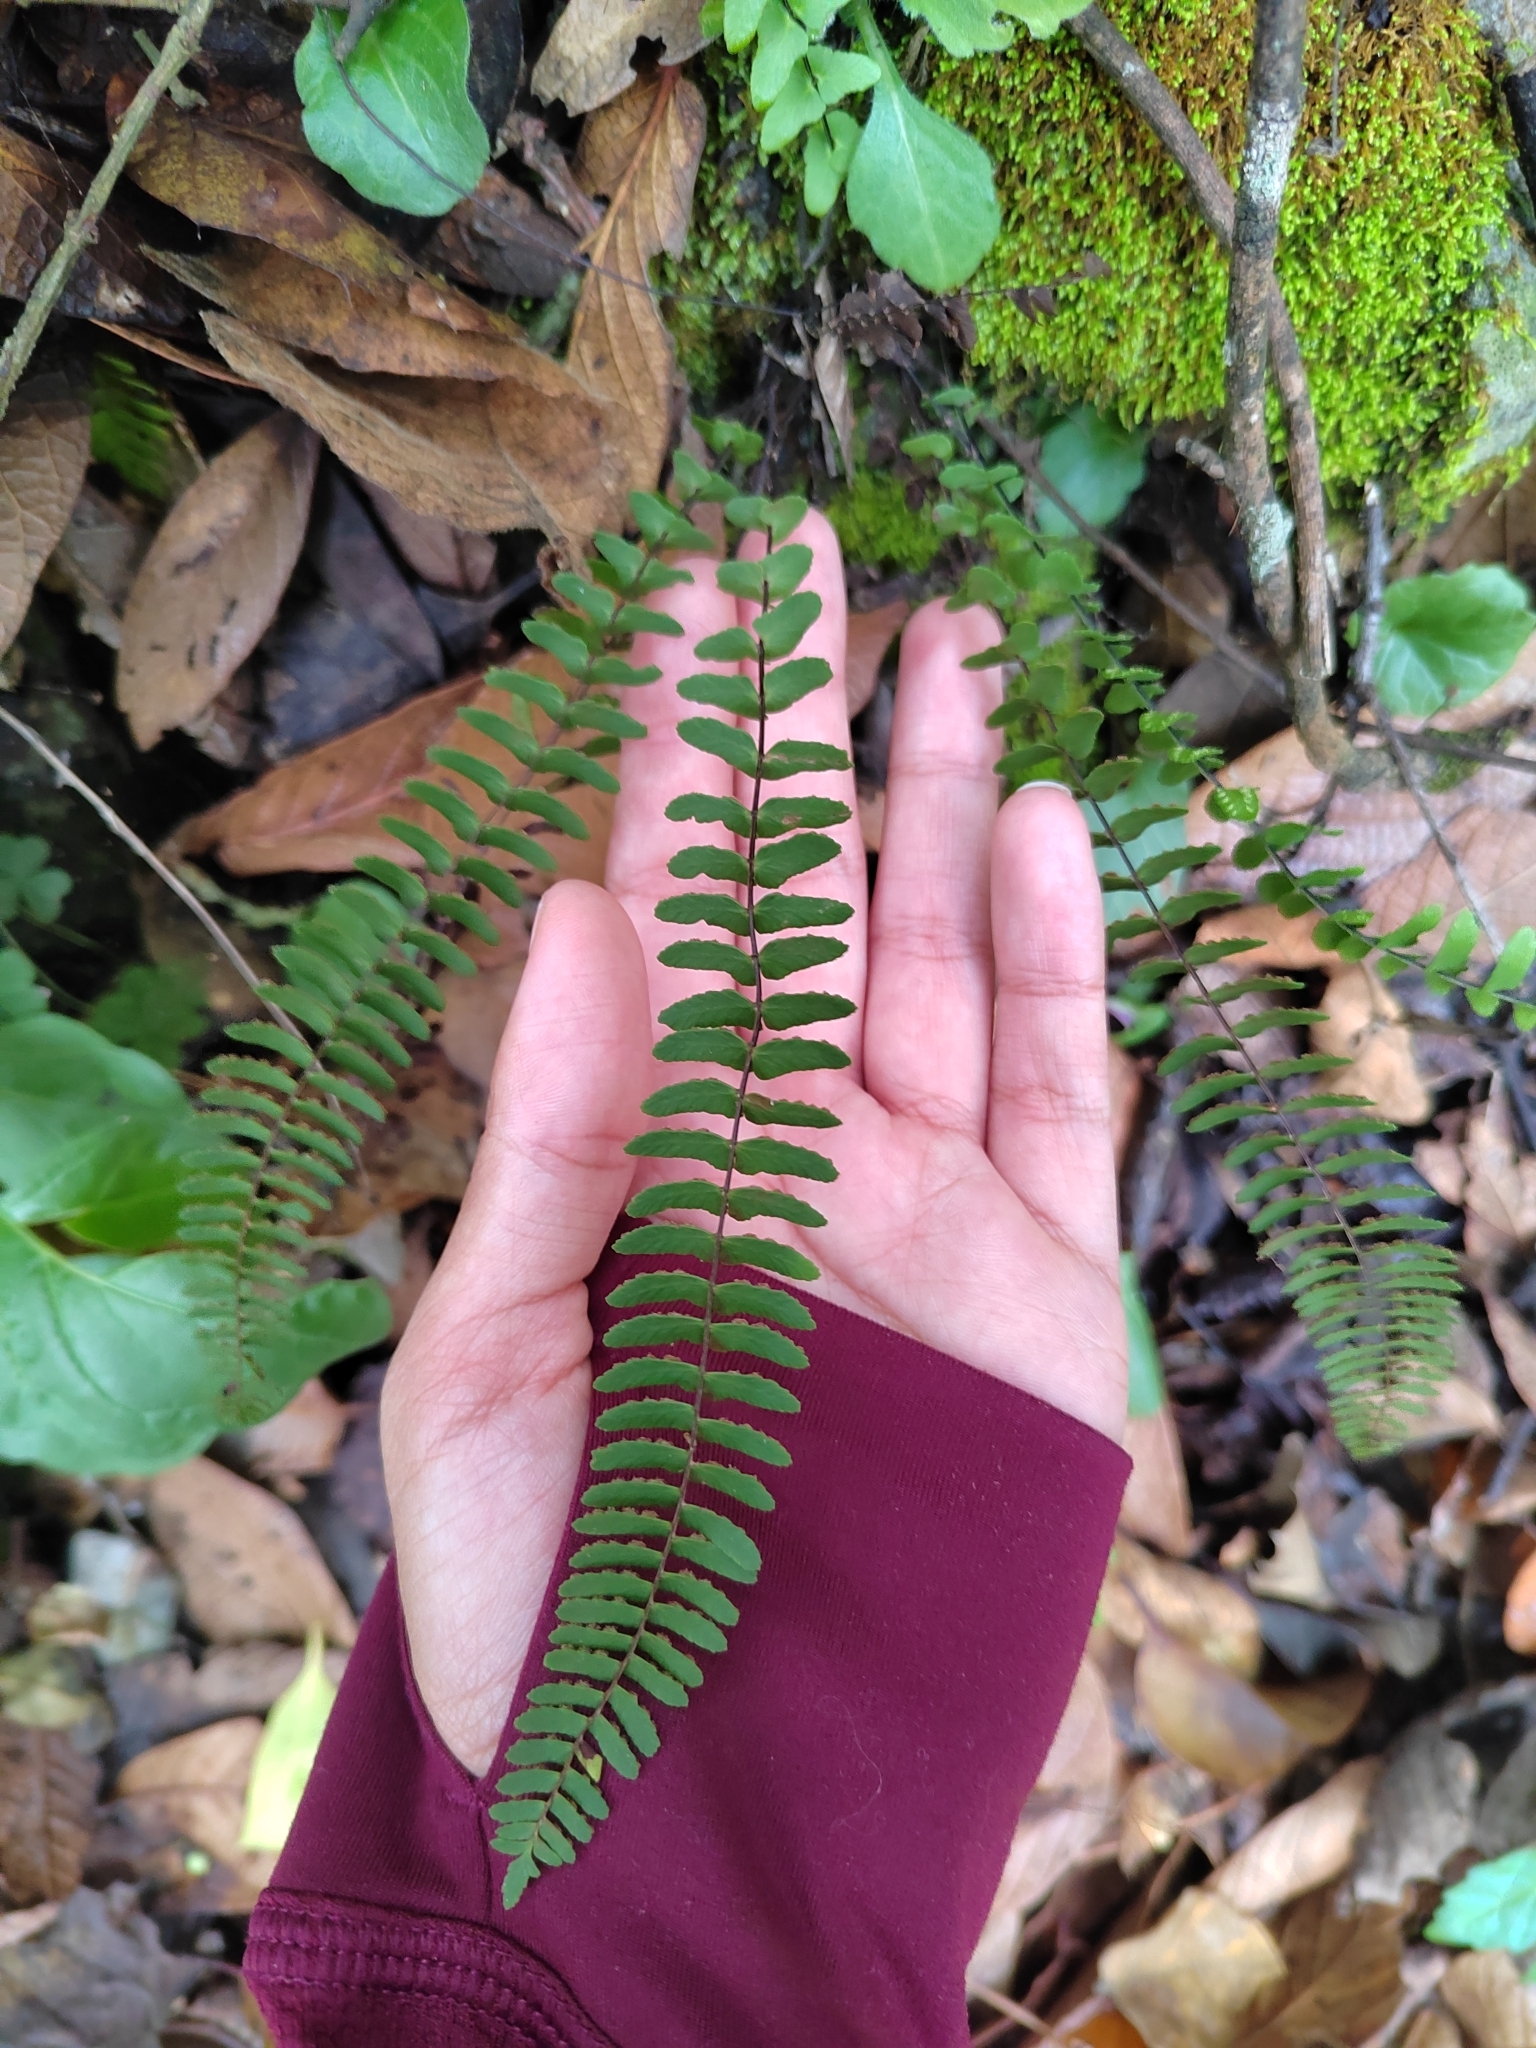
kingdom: Plantae
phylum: Tracheophyta
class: Polypodiopsida
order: Polypodiales
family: Aspleniaceae
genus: Asplenium
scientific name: Asplenium resiliens
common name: Blackstem spleenwort
